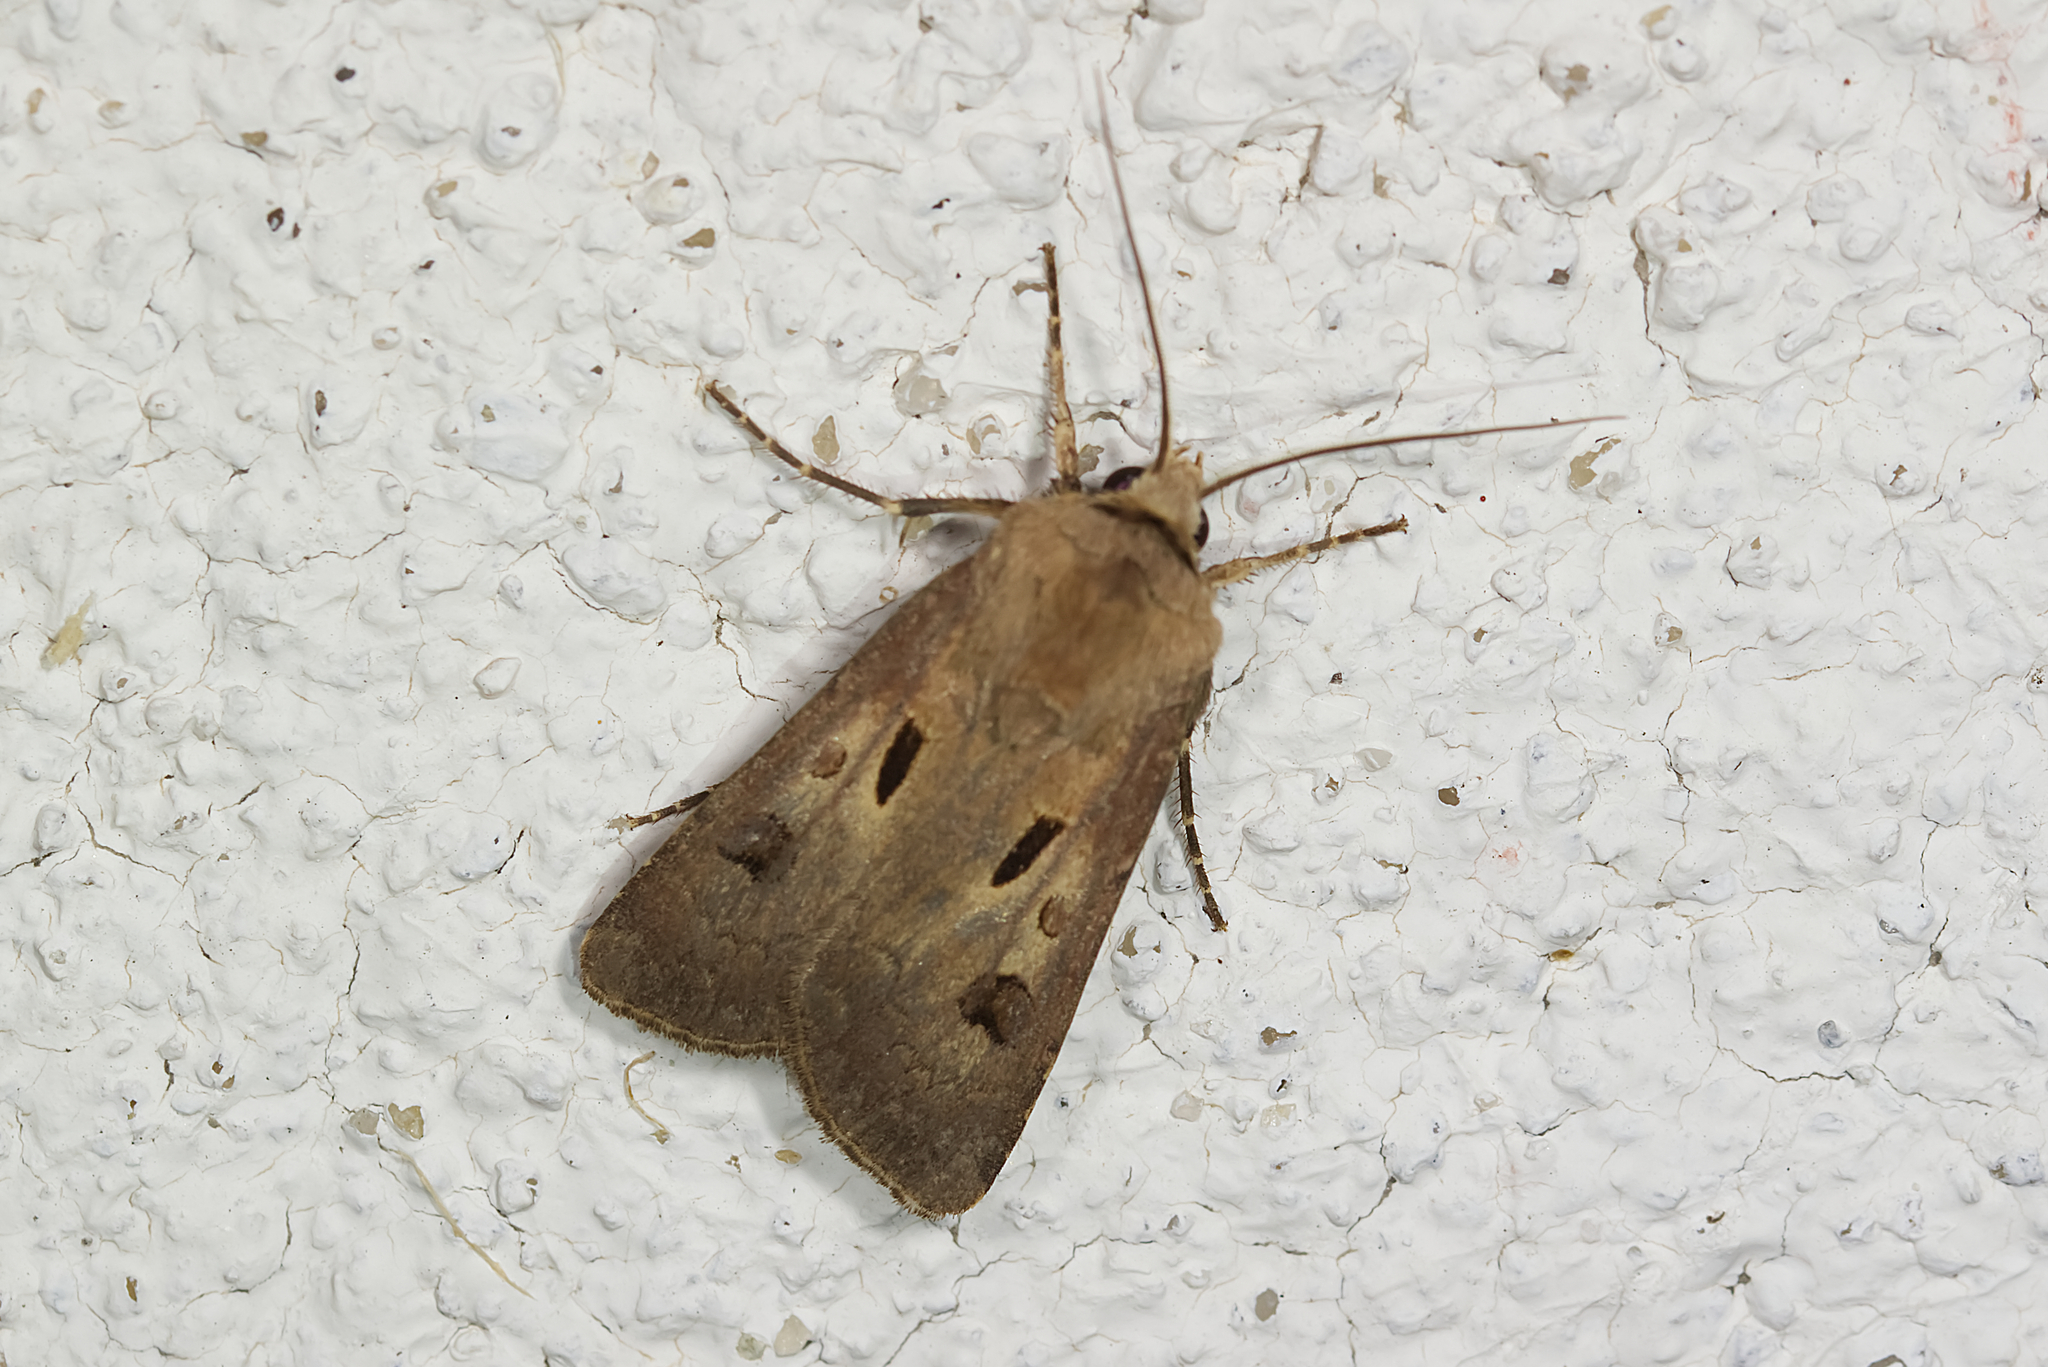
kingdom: Animalia
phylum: Arthropoda
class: Insecta
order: Lepidoptera
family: Noctuidae
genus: Agrotis
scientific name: Agrotis exclamationis
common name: Heart and dart
